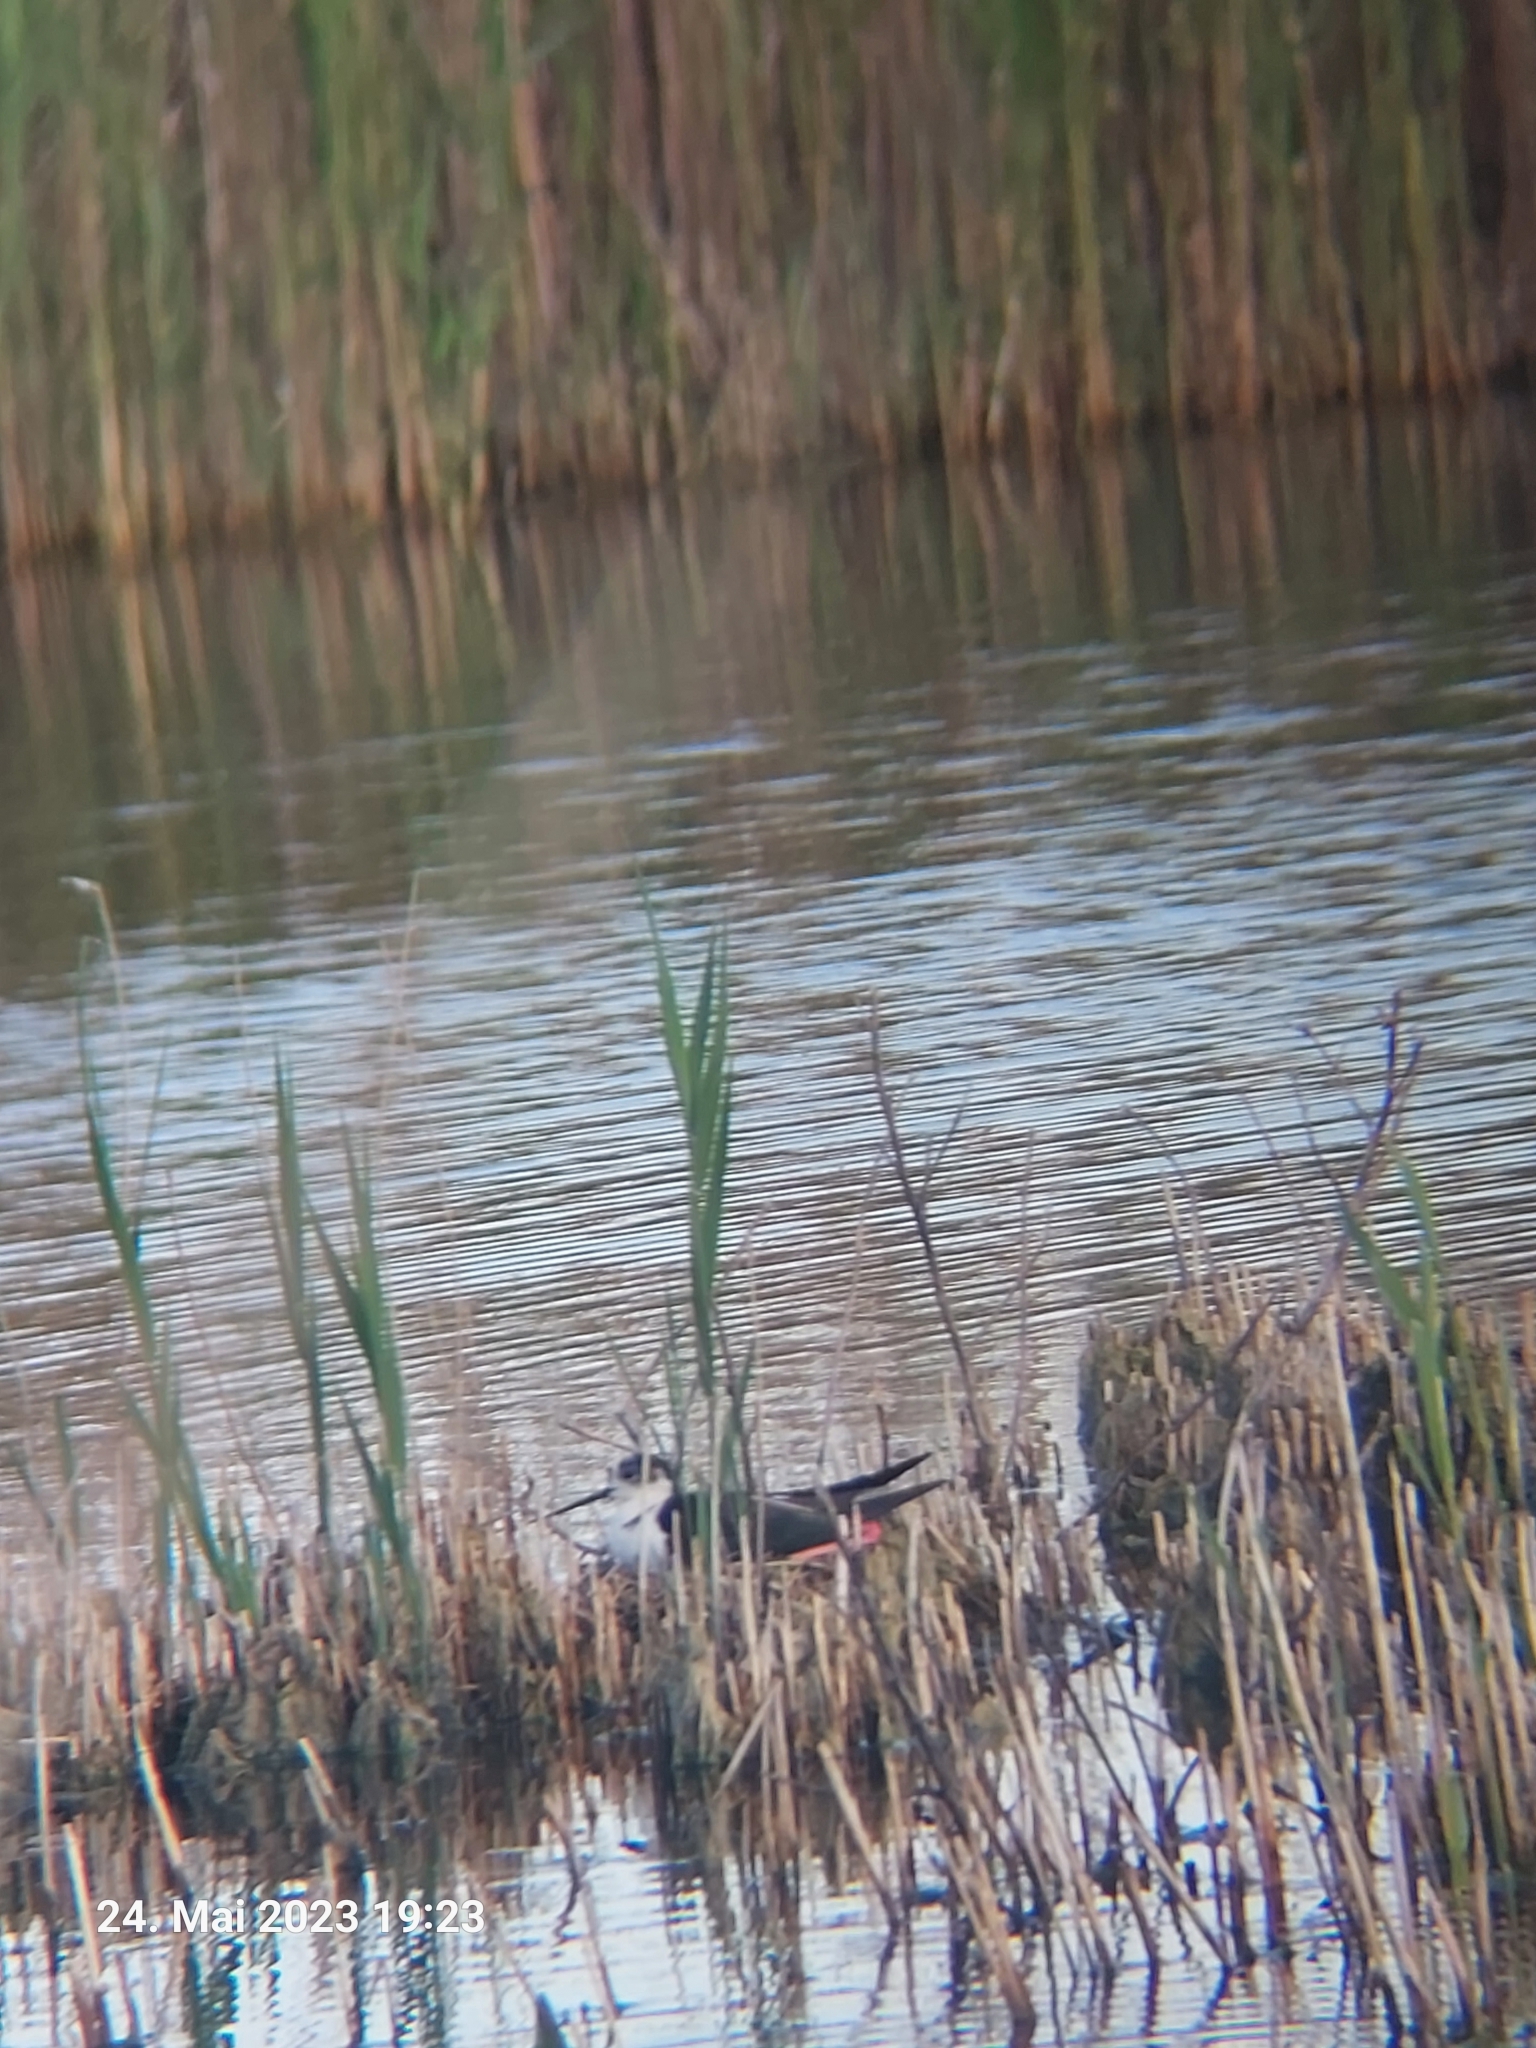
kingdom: Animalia
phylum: Chordata
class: Aves
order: Charadriiformes
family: Recurvirostridae
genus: Himantopus
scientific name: Himantopus himantopus
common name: Black-winged stilt
